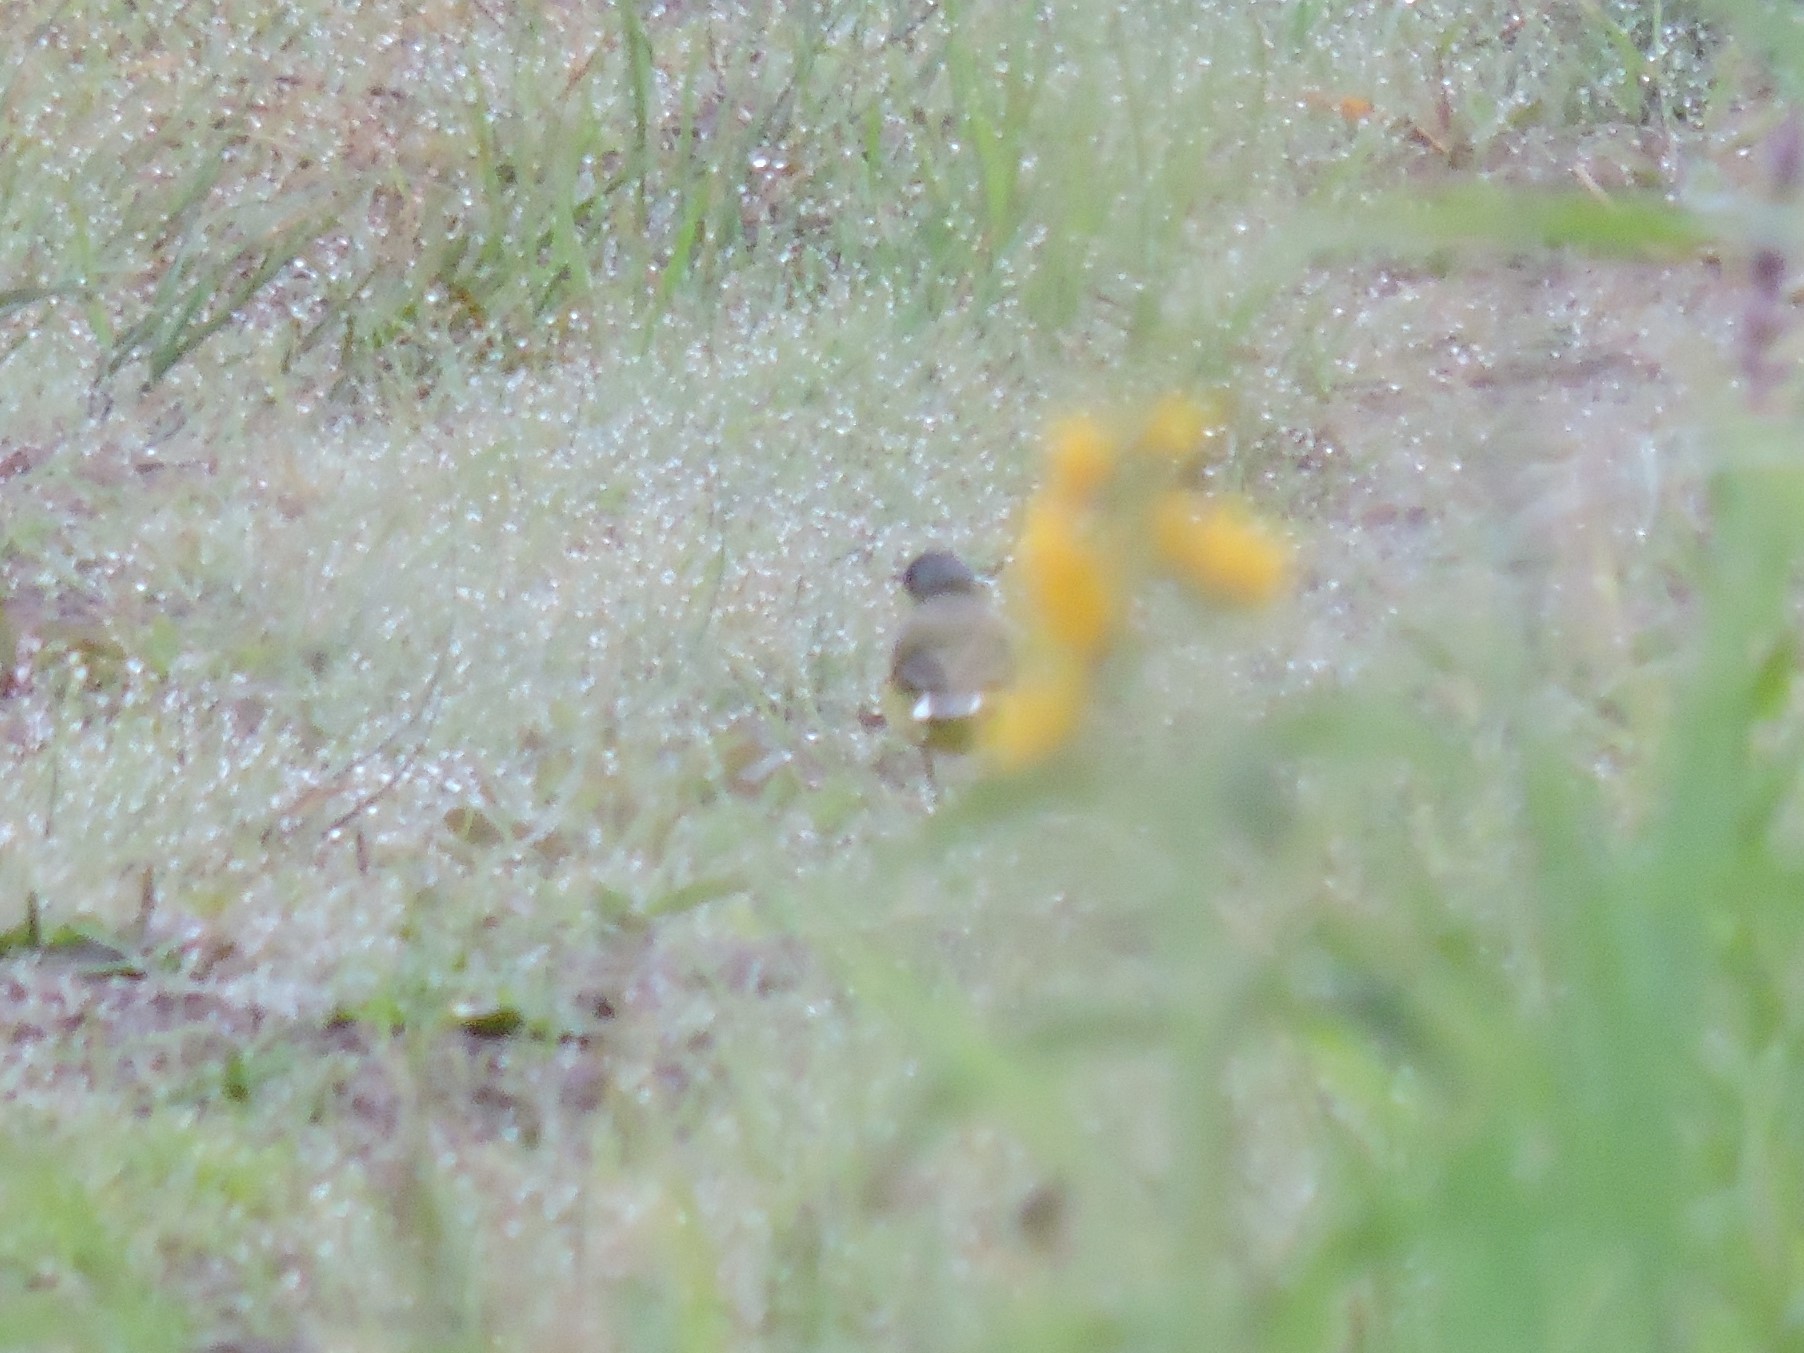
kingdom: Animalia
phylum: Chordata
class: Aves
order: Passeriformes
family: Motacillidae
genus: Motacilla
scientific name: Motacilla flava
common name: Western yellow wagtail
